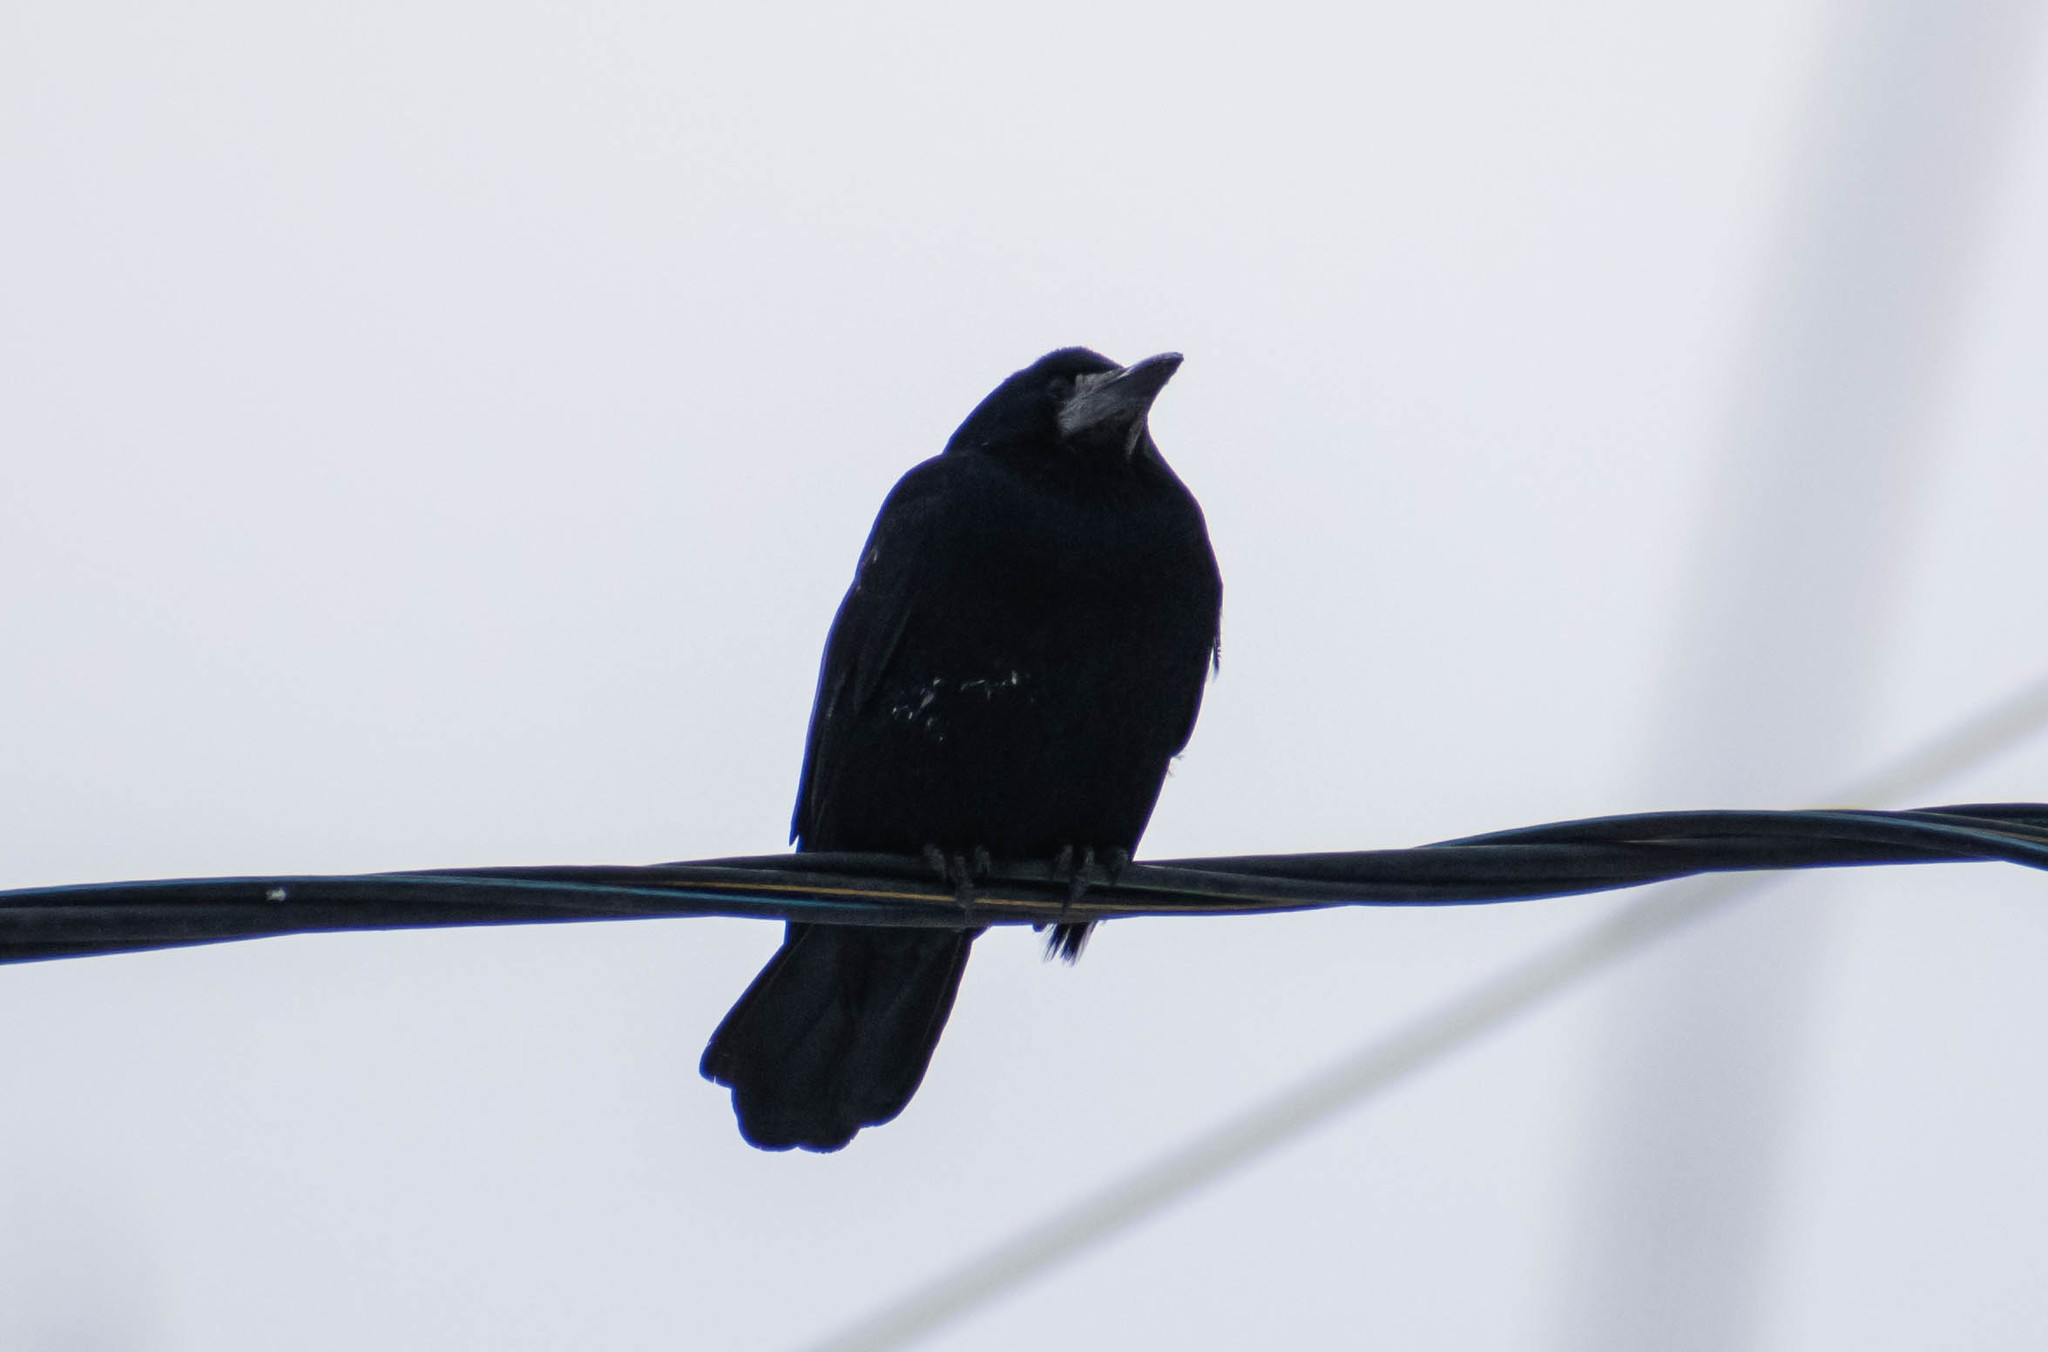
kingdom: Animalia
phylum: Chordata
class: Aves
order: Passeriformes
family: Corvidae
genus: Corvus
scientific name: Corvus frugilegus
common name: Rook
